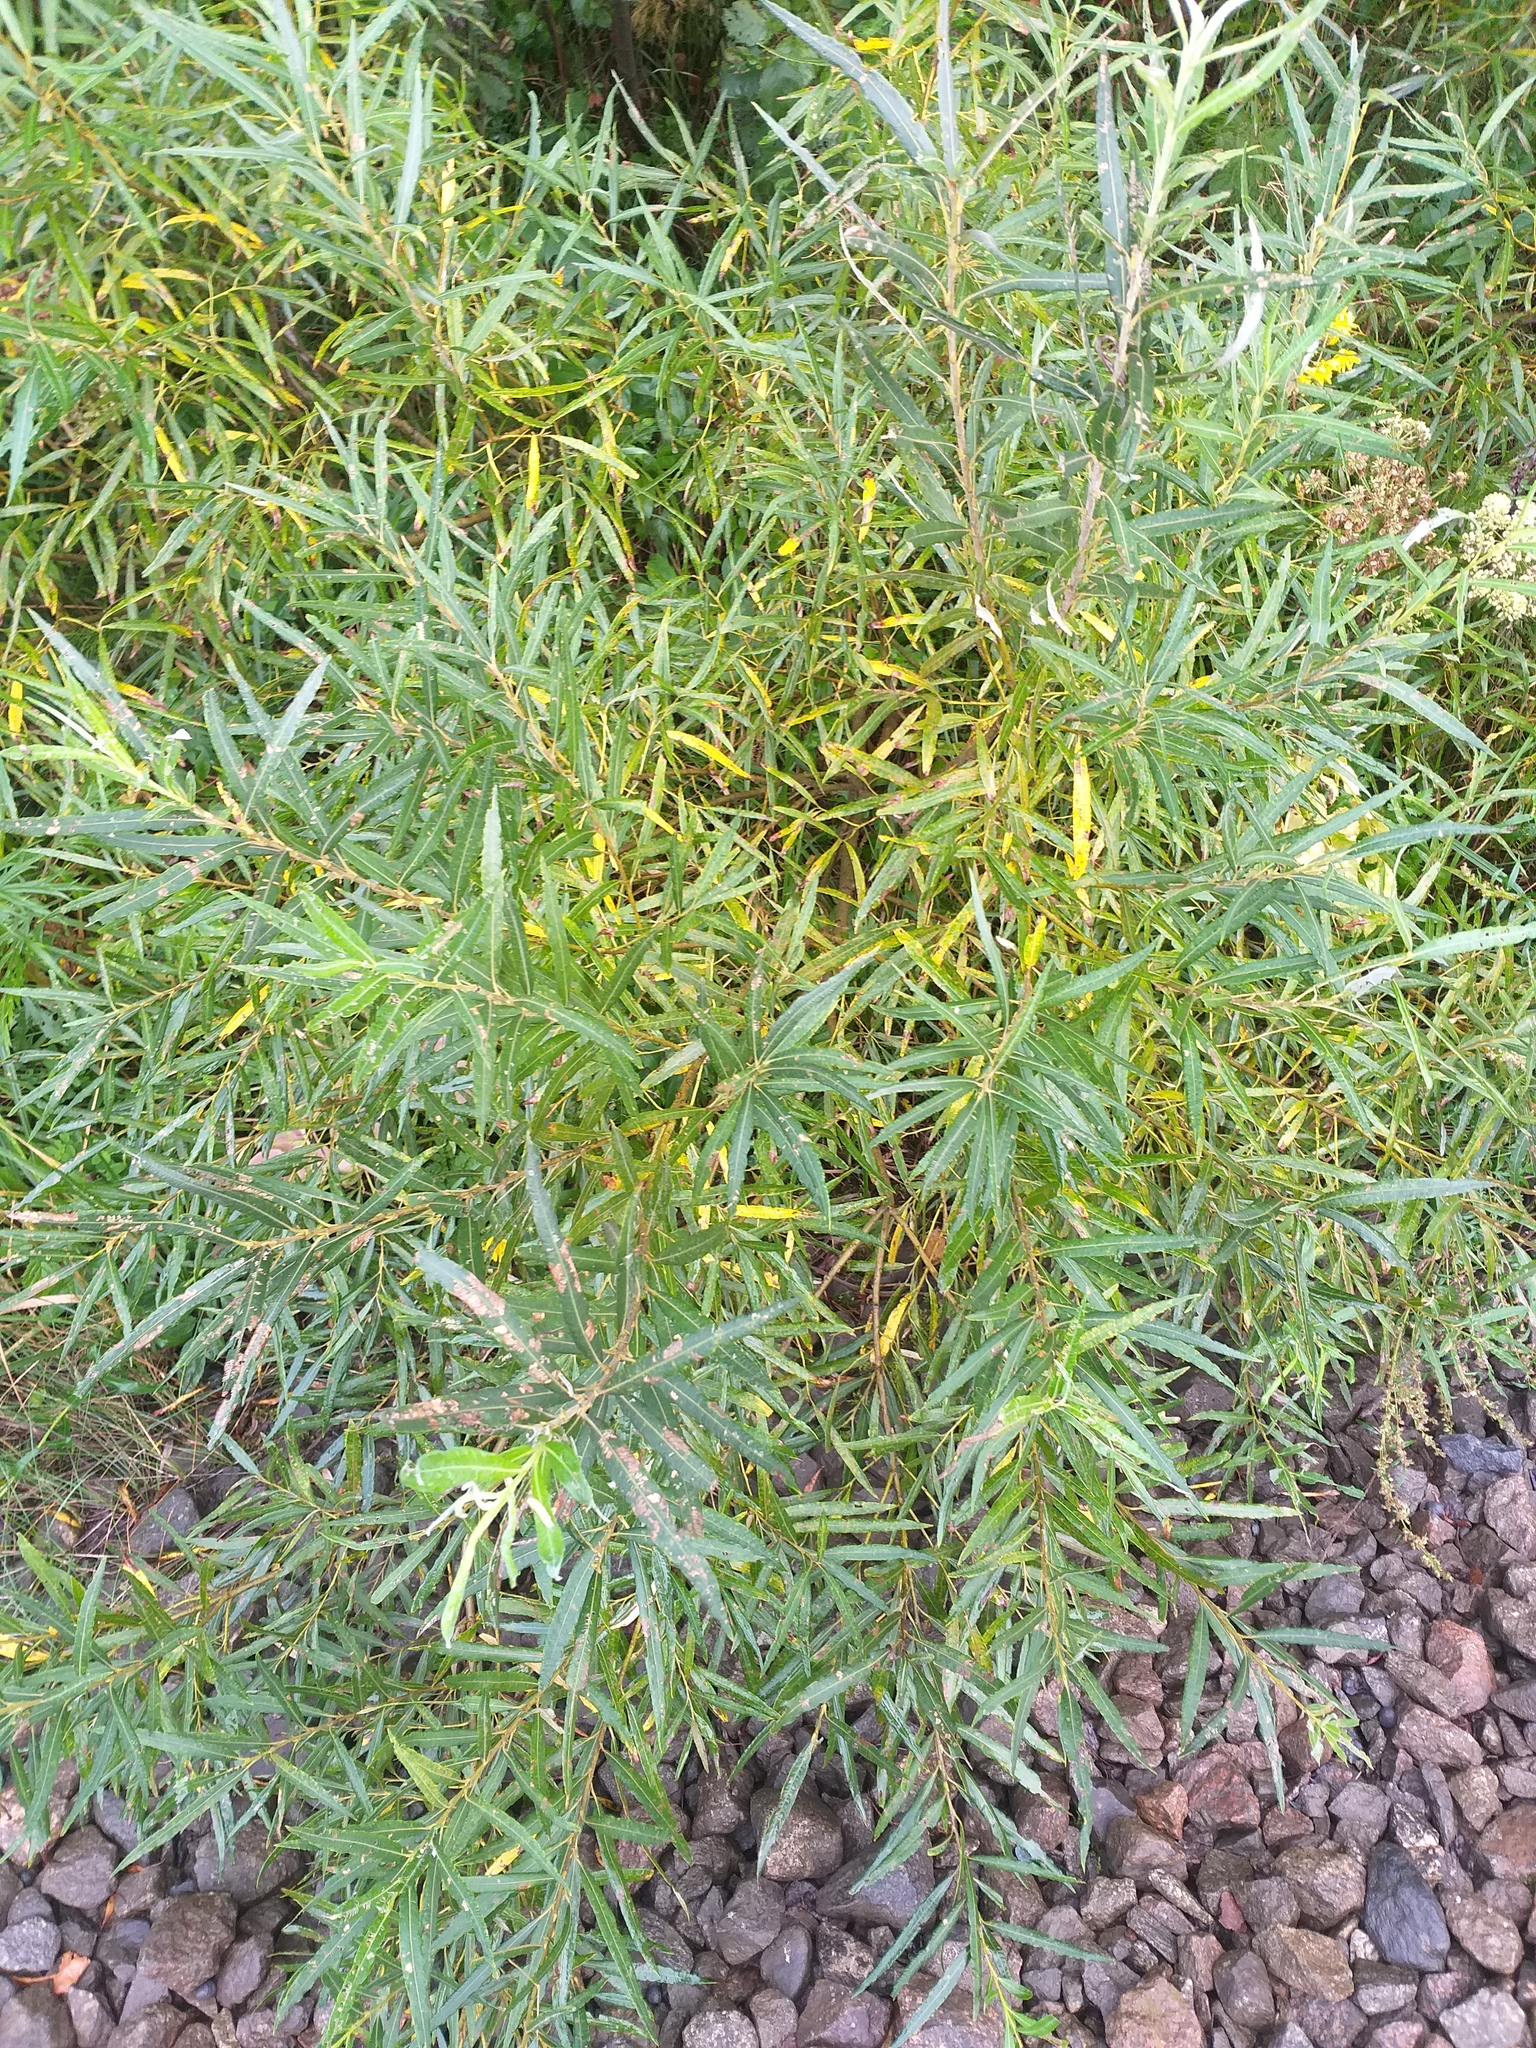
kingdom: Plantae
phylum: Tracheophyta
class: Magnoliopsida
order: Malpighiales
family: Salicaceae
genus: Salix
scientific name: Salix viminalis
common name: Osier
